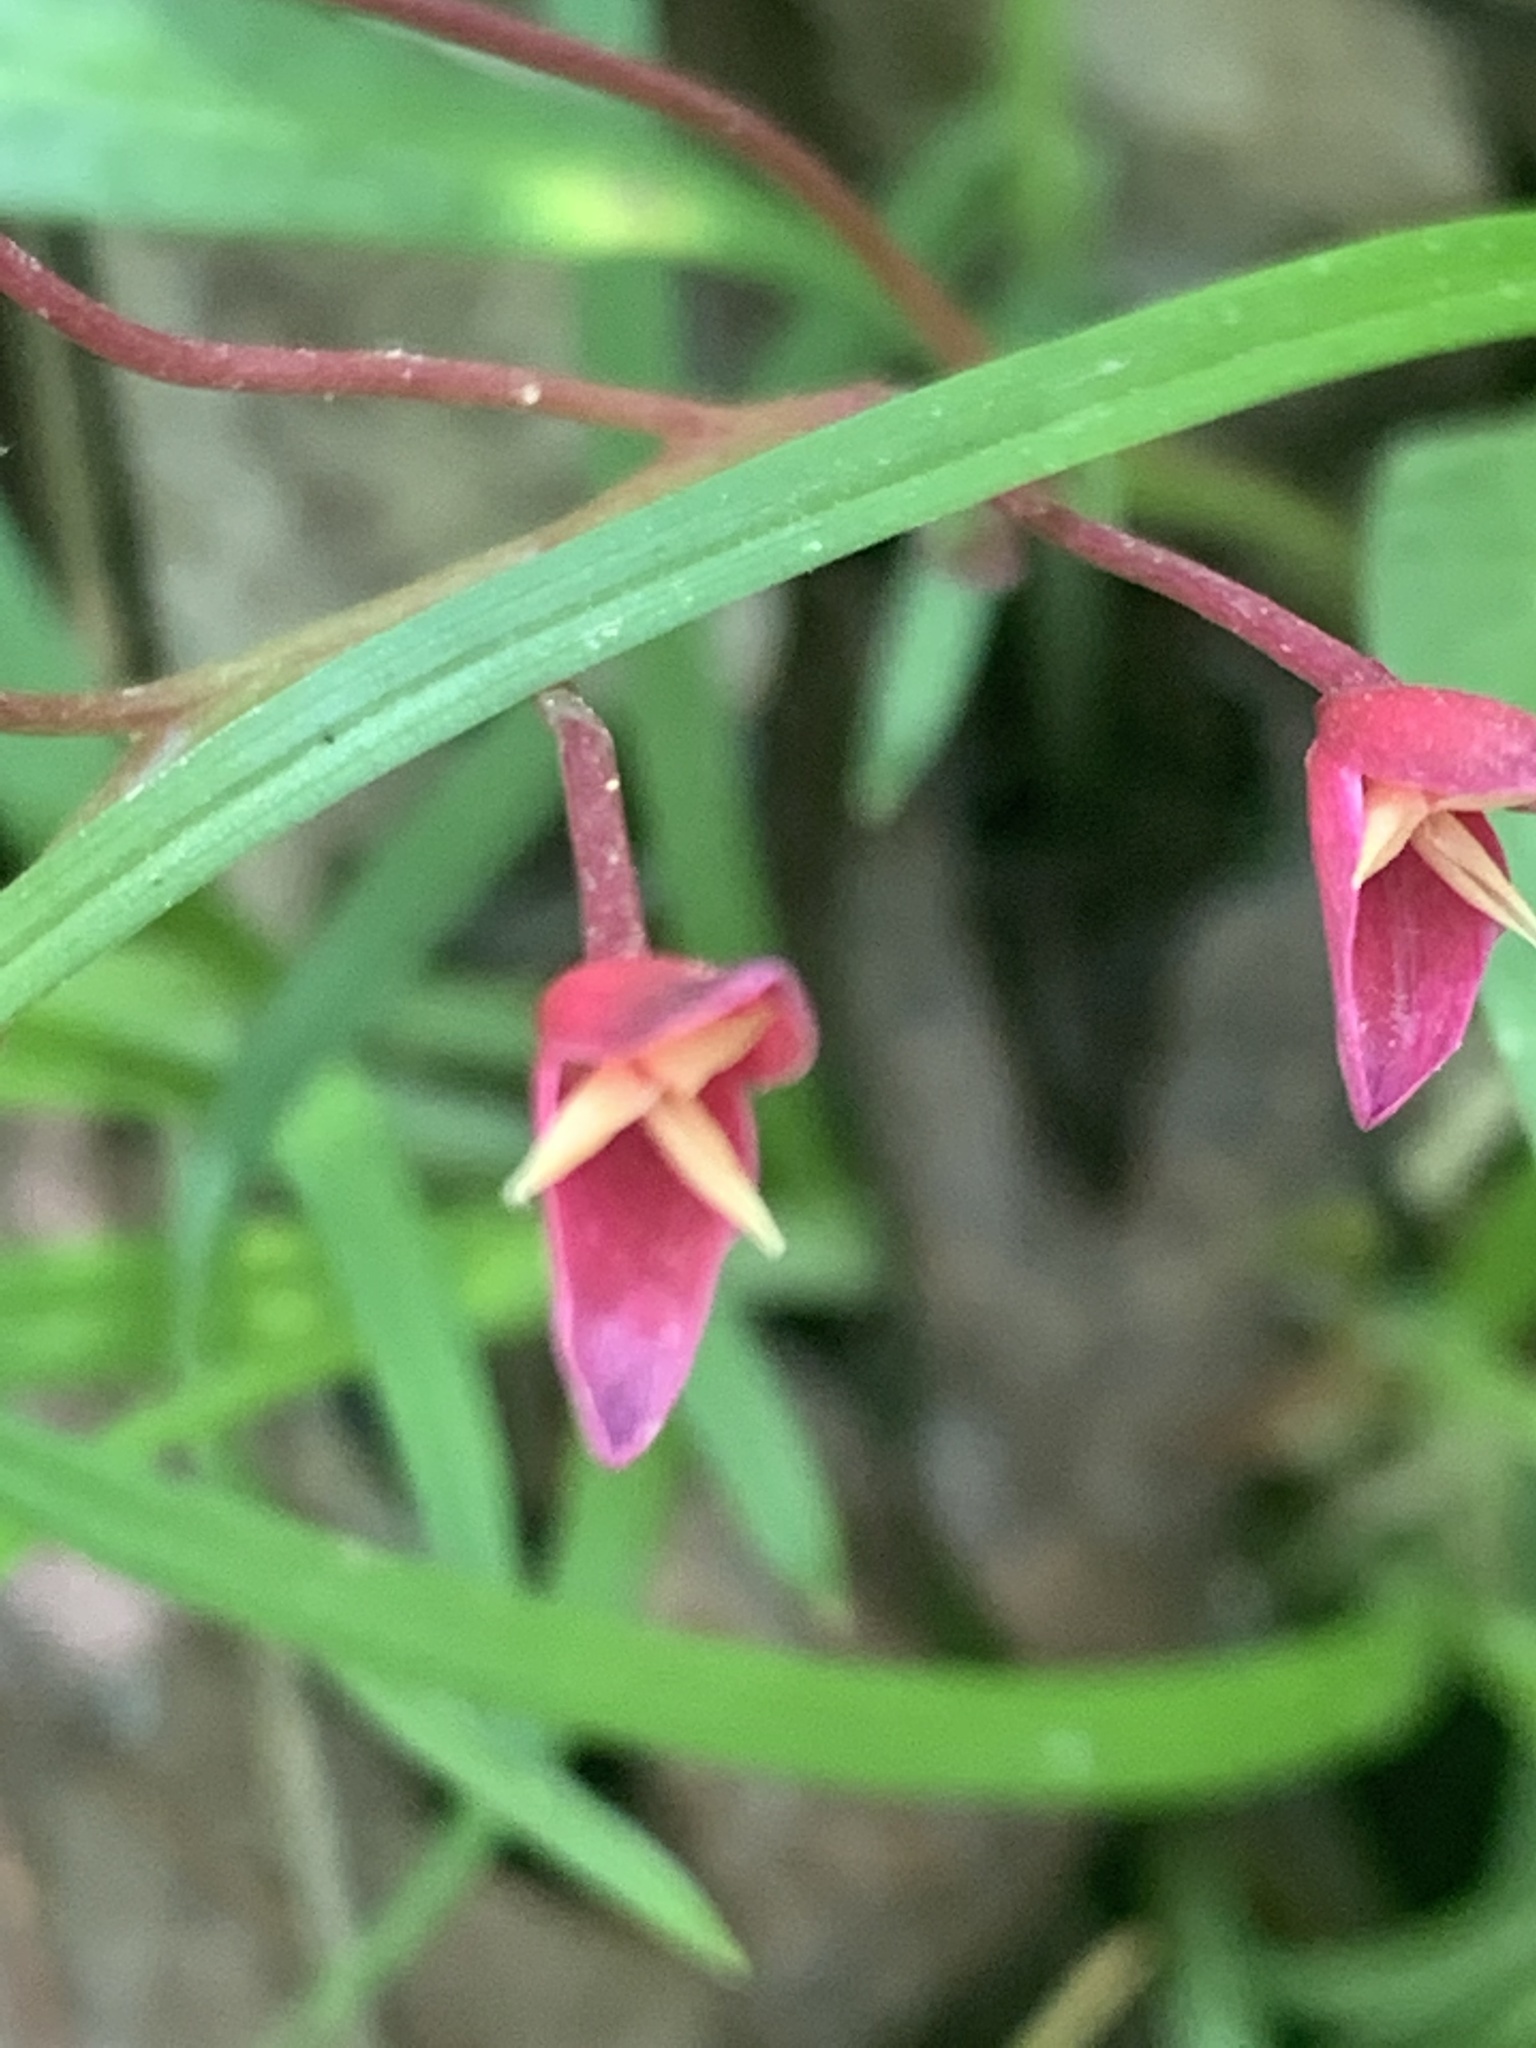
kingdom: Plantae
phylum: Tracheophyta
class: Magnoliopsida
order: Caryophyllales
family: Montiaceae
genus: Claytonia
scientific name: Claytonia virginica
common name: Virginia springbeauty
